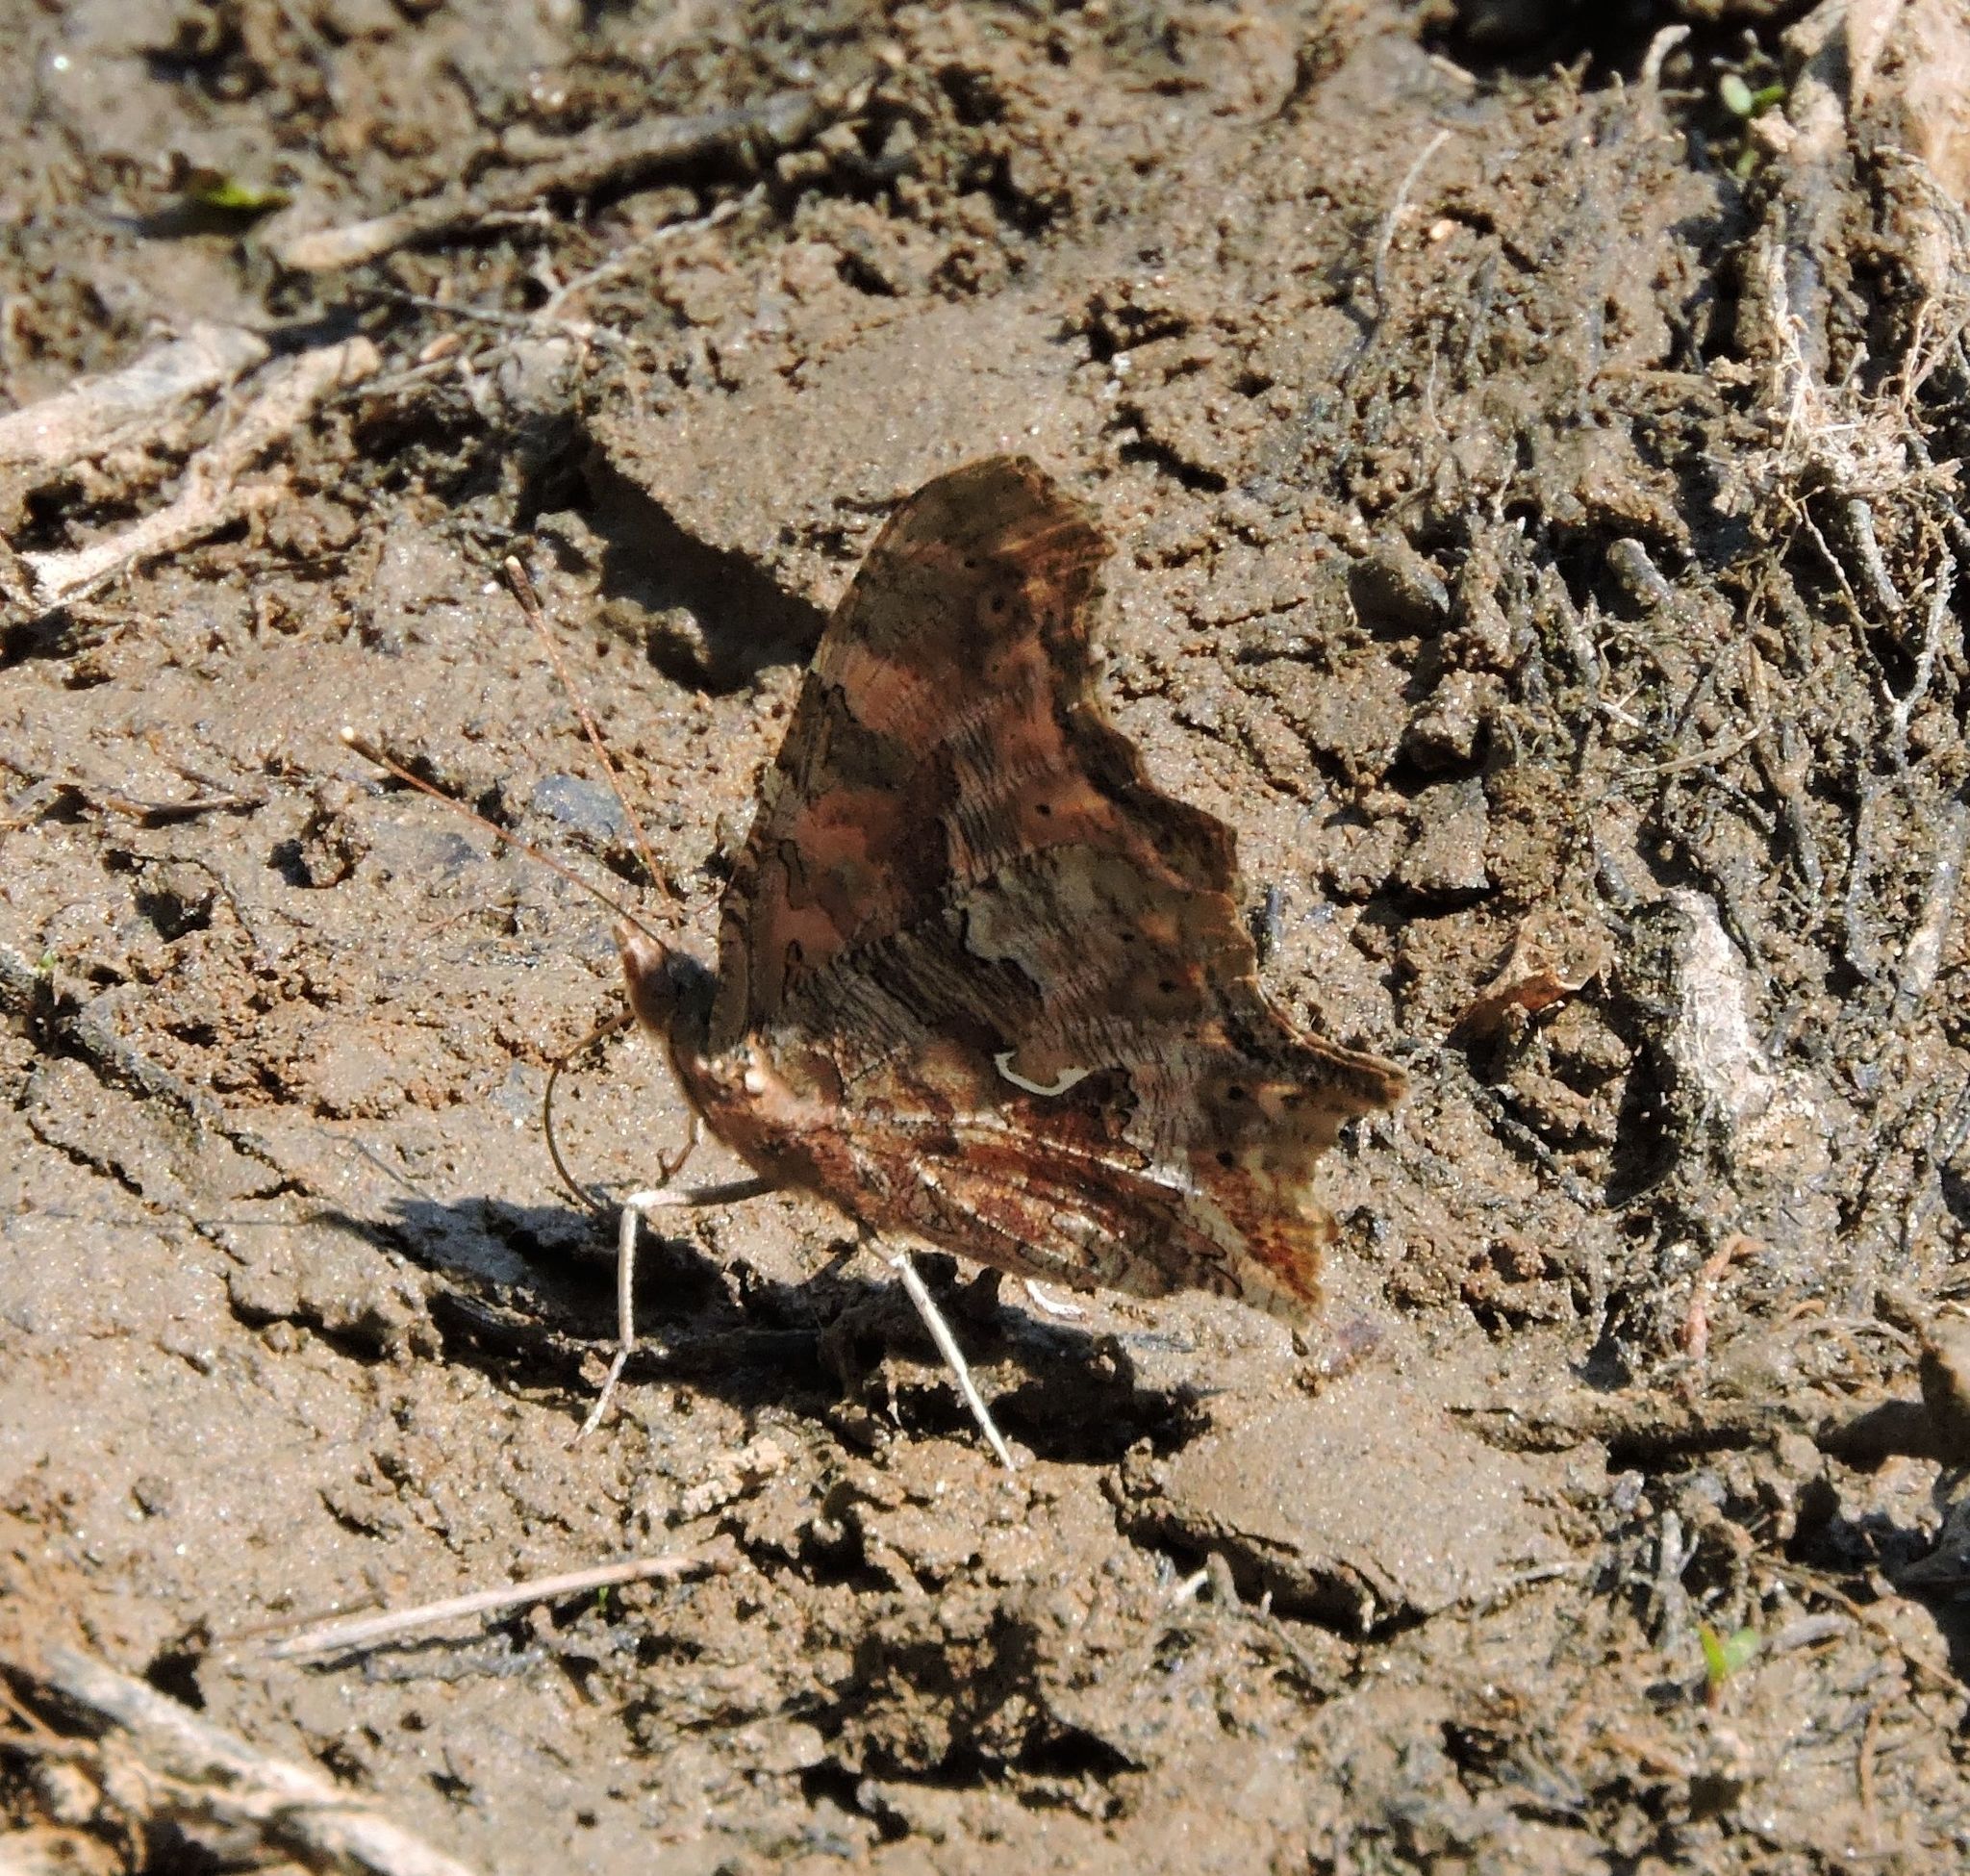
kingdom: Animalia
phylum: Arthropoda
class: Insecta
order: Lepidoptera
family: Nymphalidae
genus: Polygonia
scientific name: Polygonia comma
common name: Eastern comma
